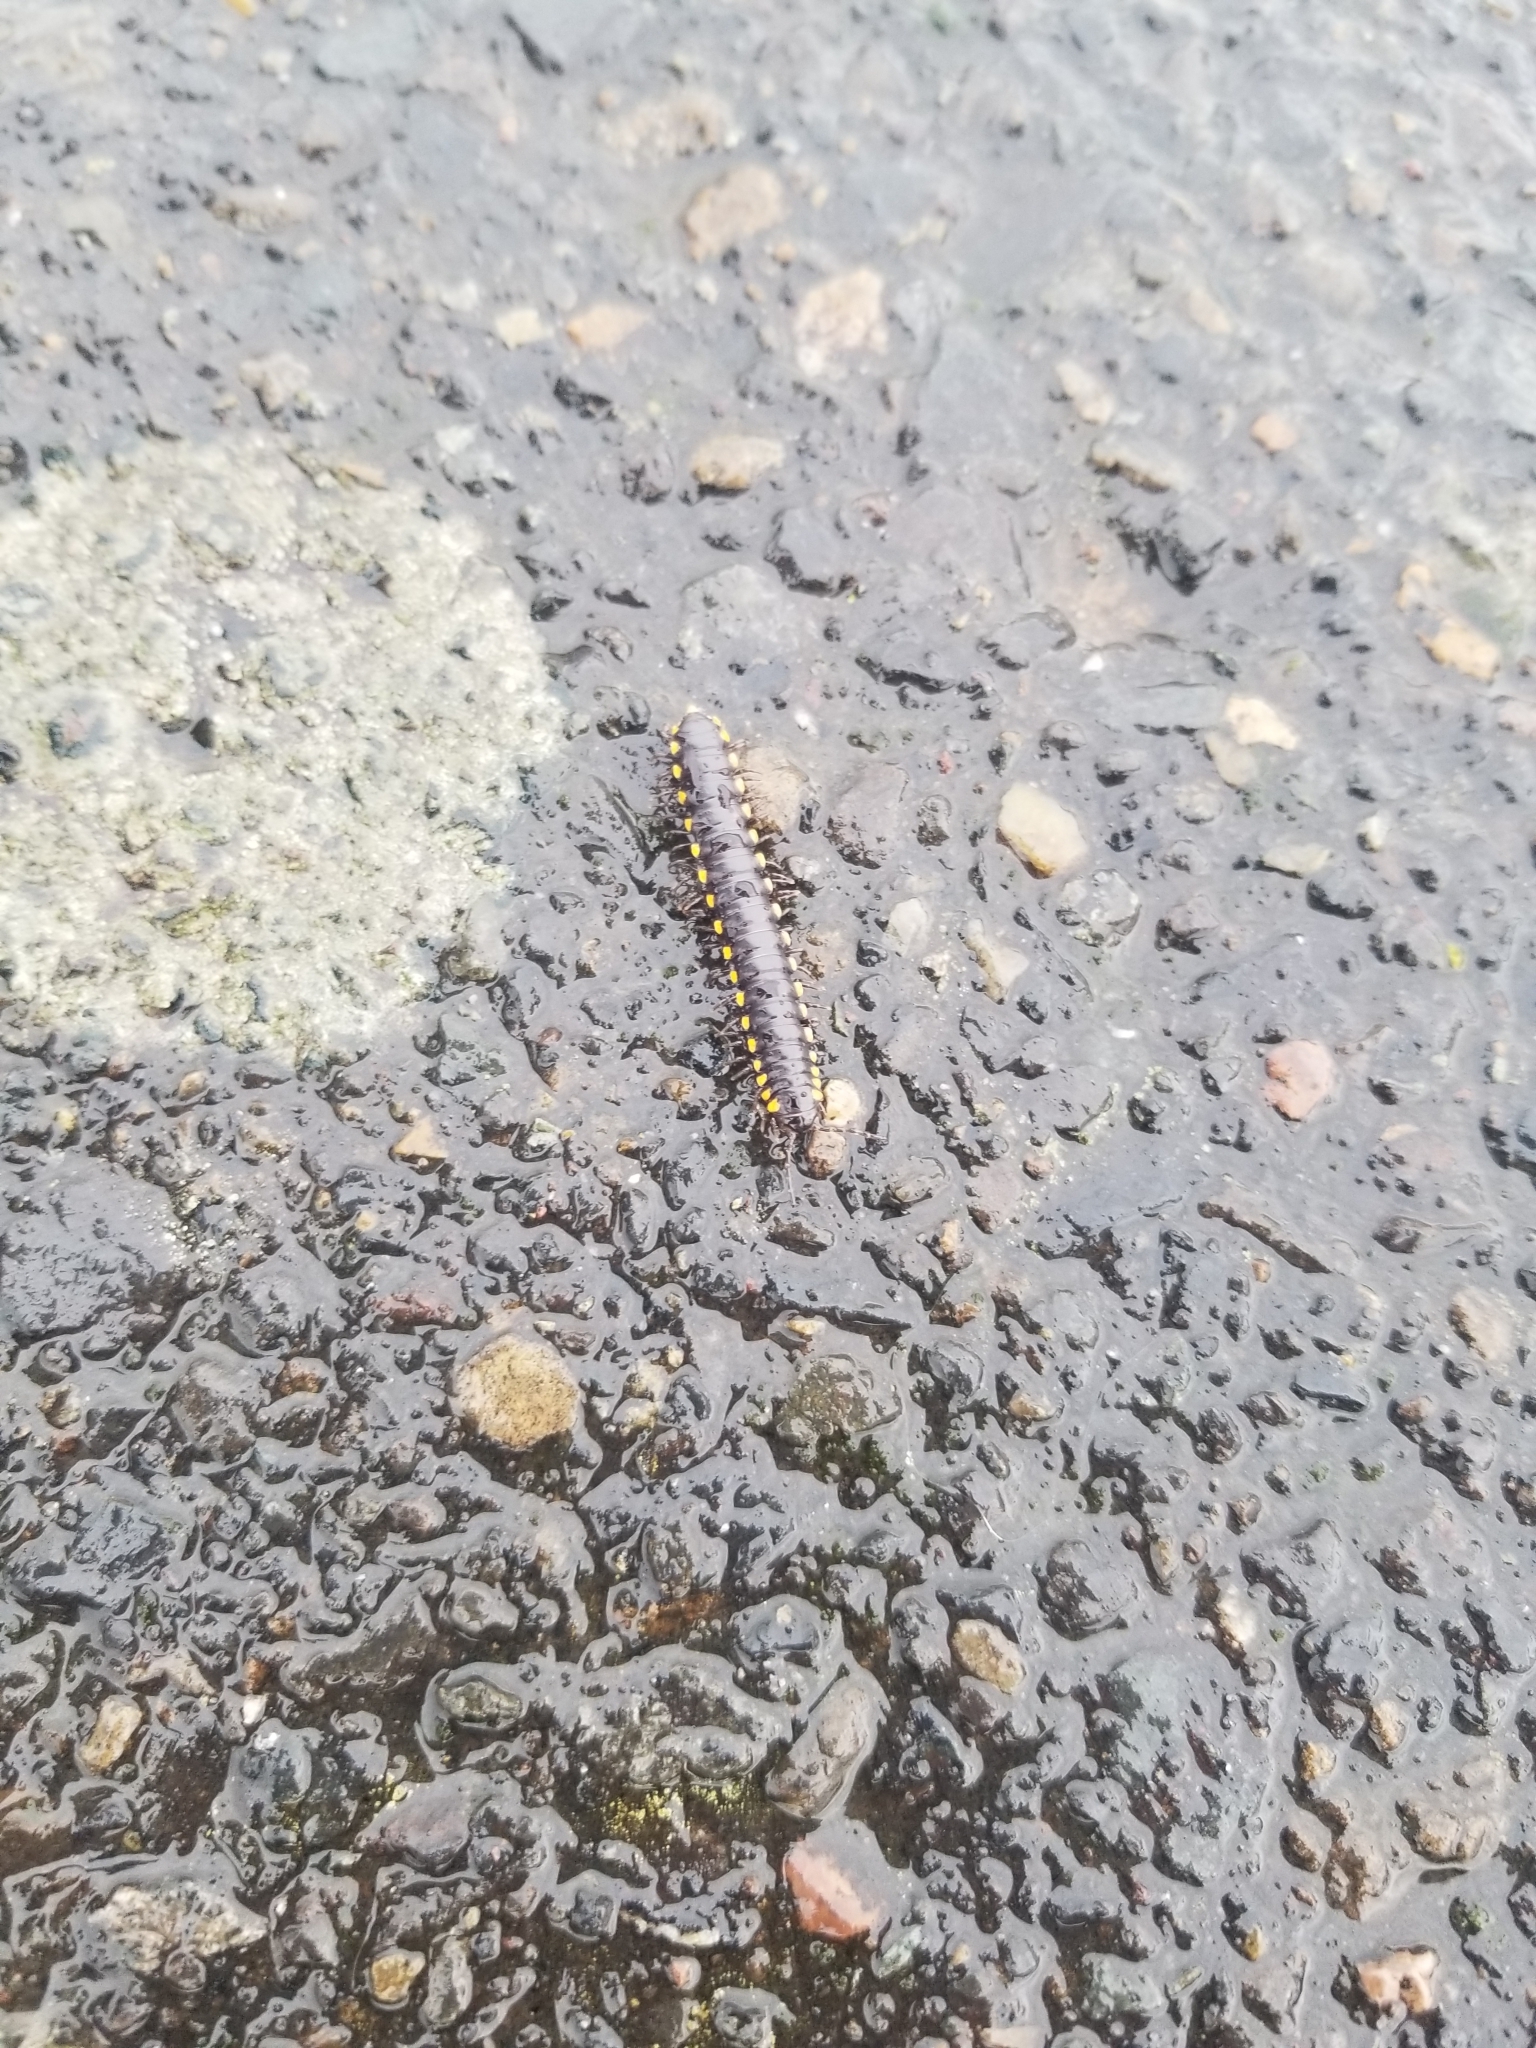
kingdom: Animalia
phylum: Arthropoda
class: Diplopoda
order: Polydesmida
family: Xystodesmidae
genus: Harpaphe
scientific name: Harpaphe haydeniana
